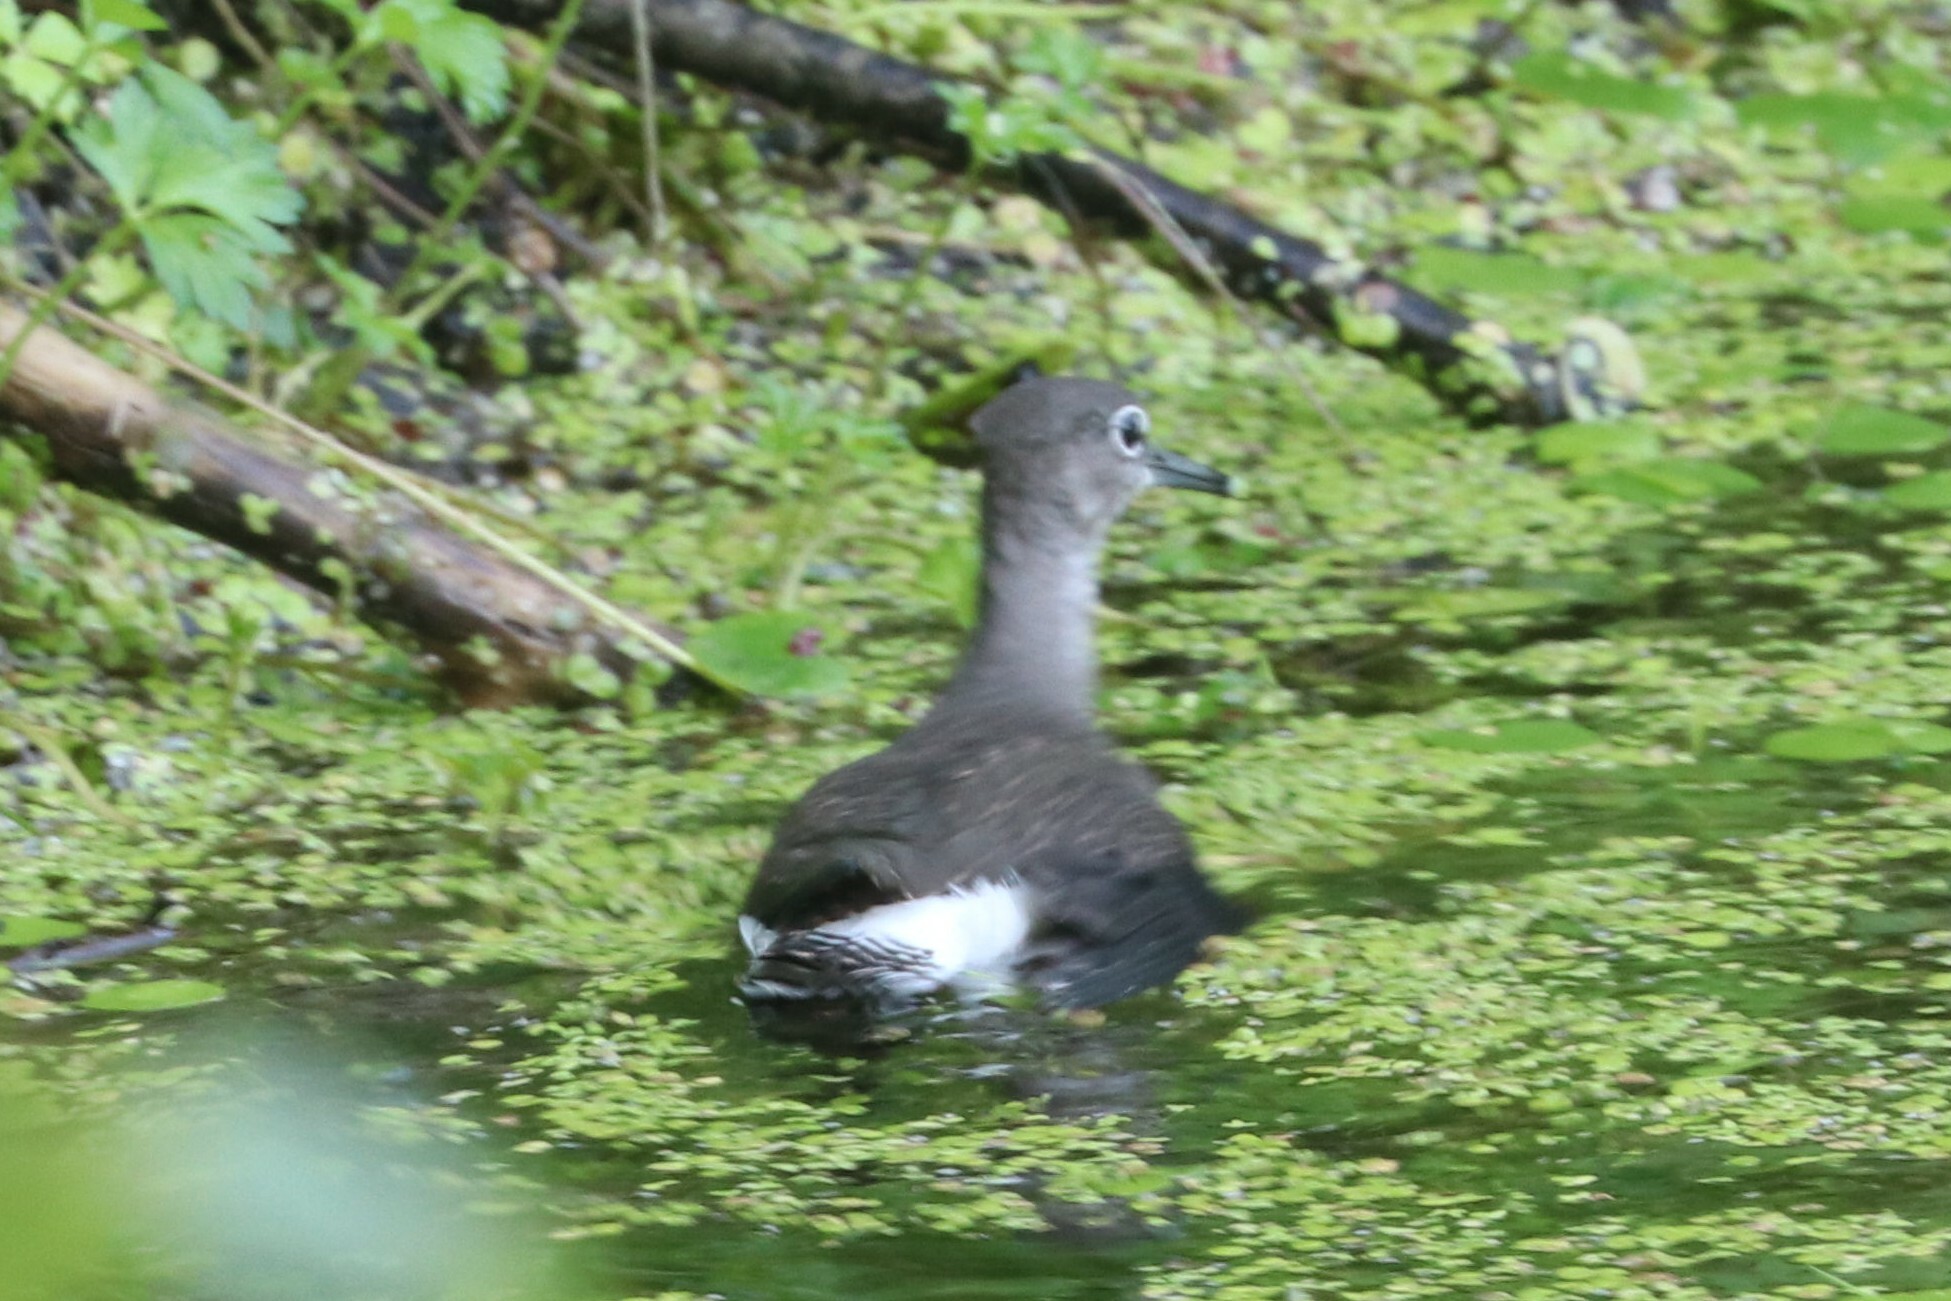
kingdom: Animalia
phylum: Chordata
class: Aves
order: Charadriiformes
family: Scolopacidae
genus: Tringa
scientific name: Tringa ochropus
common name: Green sandpiper
